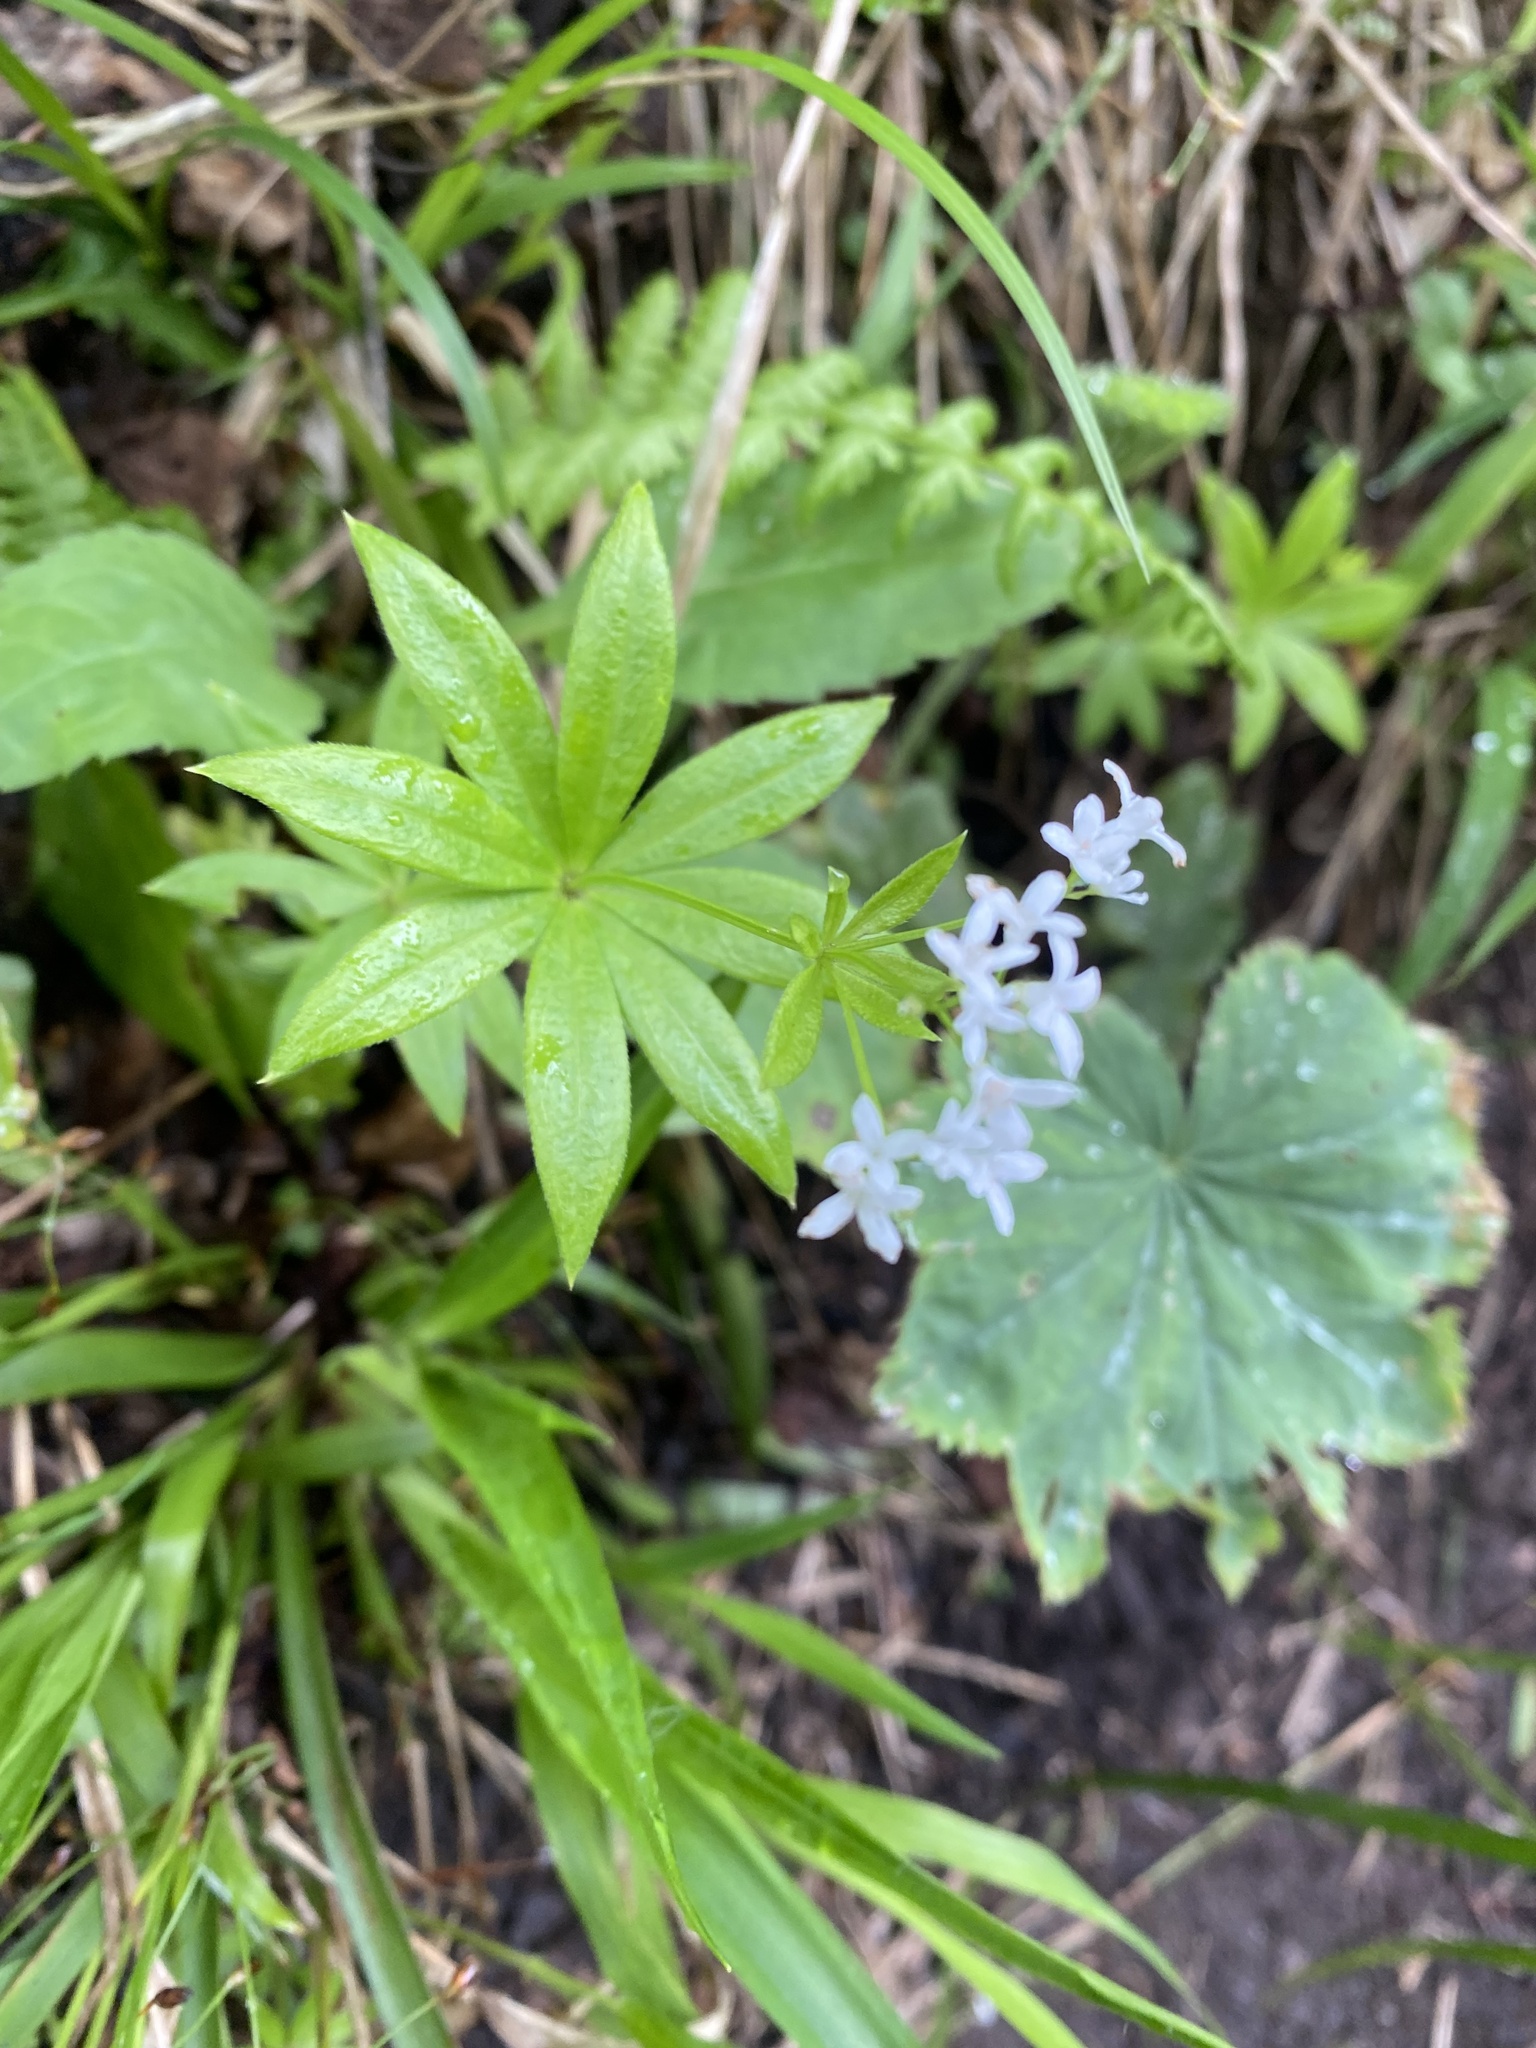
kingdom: Plantae
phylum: Tracheophyta
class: Magnoliopsida
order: Gentianales
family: Rubiaceae
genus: Galium
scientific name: Galium odoratum
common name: Sweet woodruff
